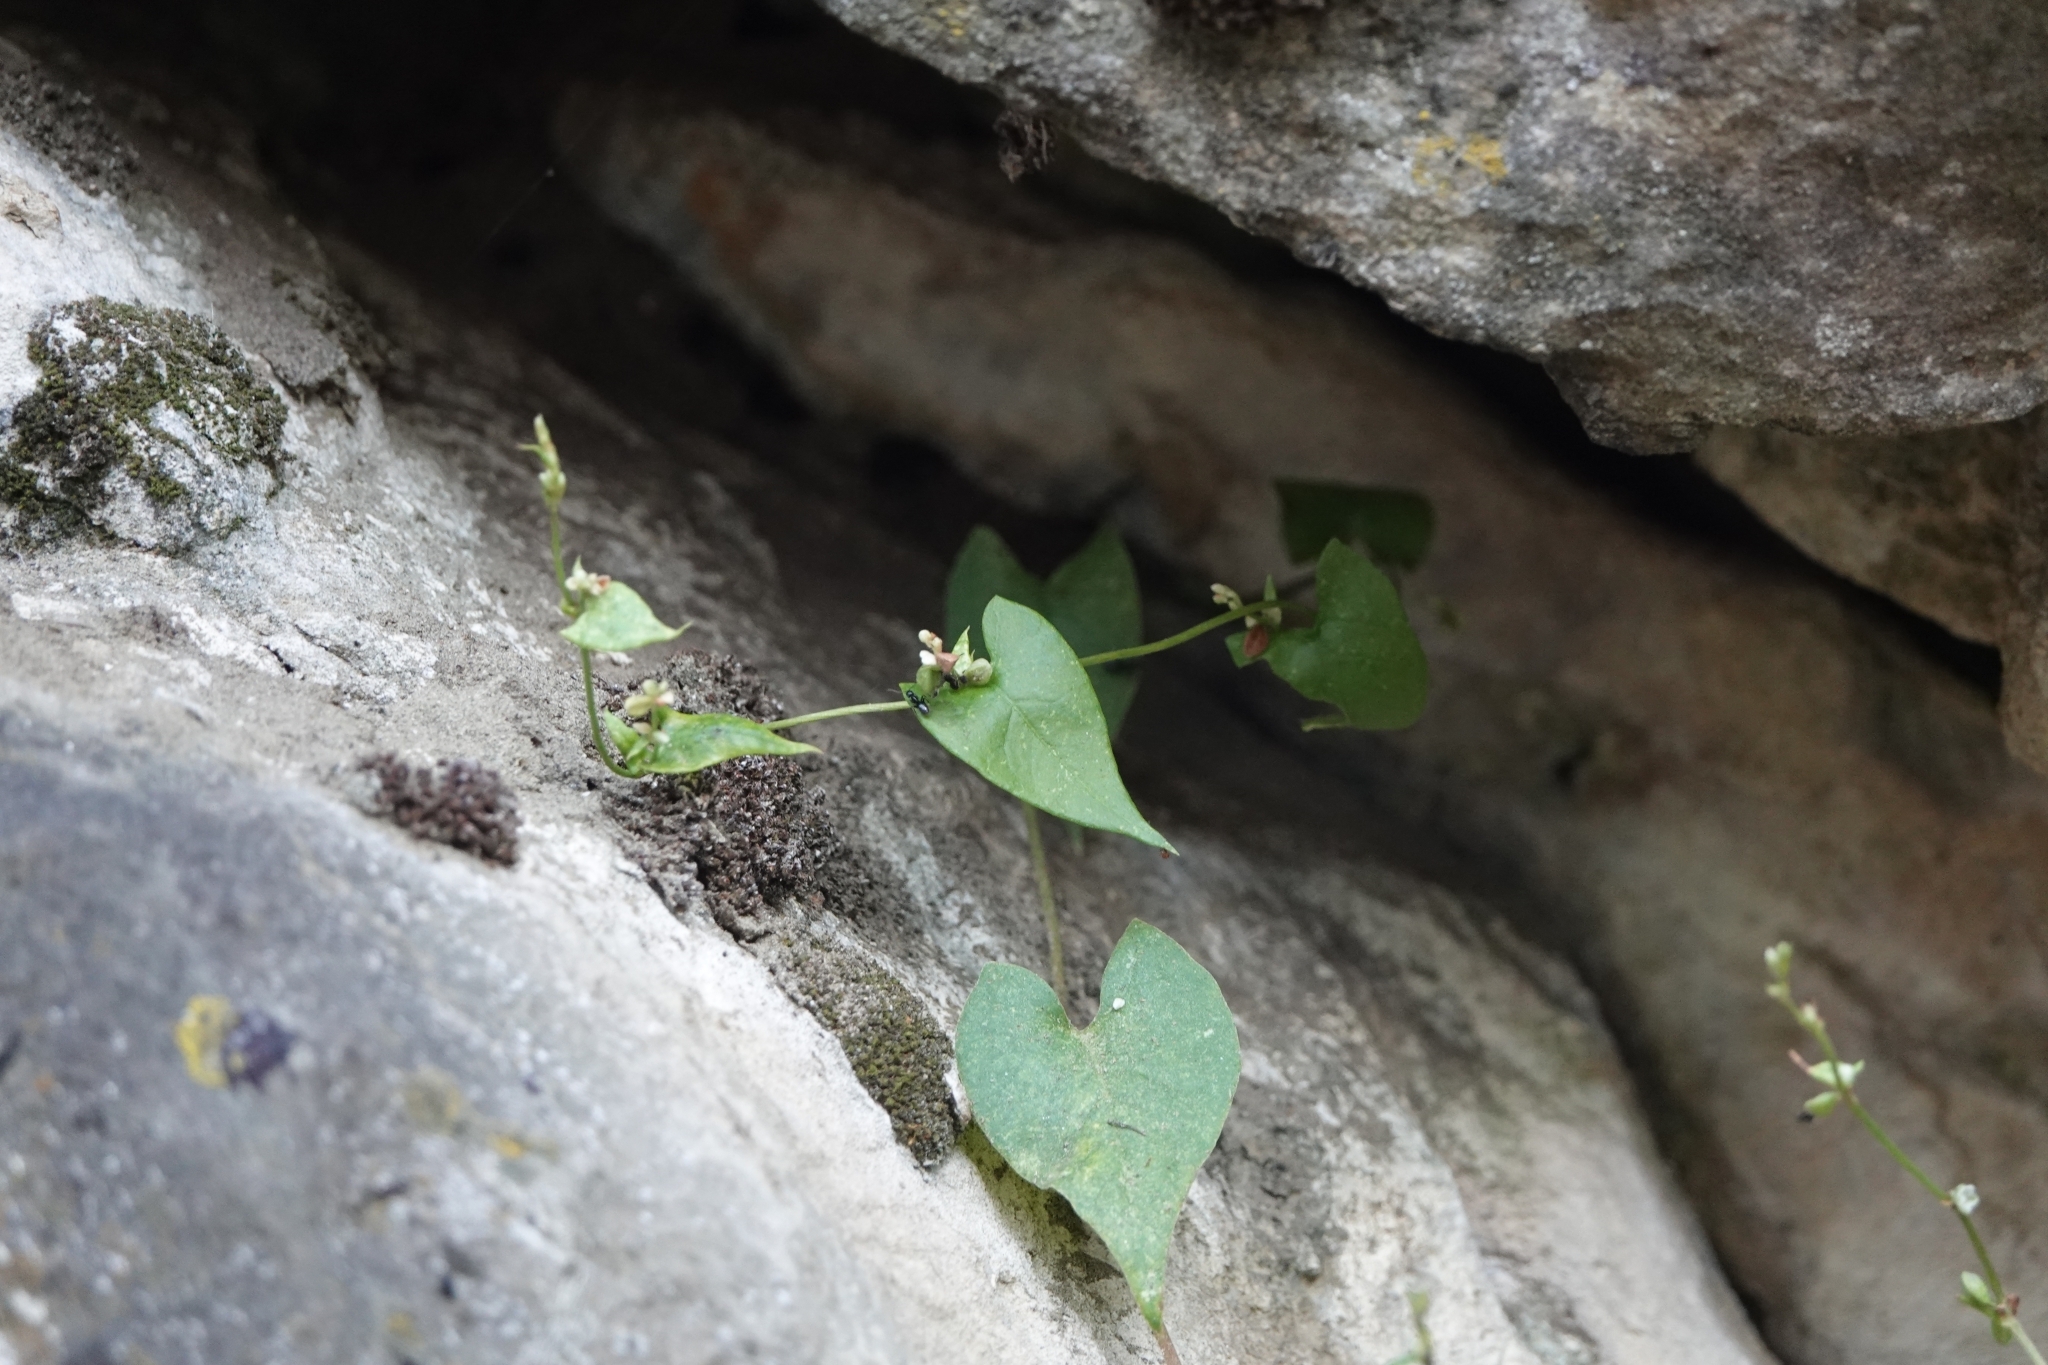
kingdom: Plantae
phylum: Tracheophyta
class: Magnoliopsida
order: Caryophyllales
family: Polygonaceae
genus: Fallopia
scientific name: Fallopia convolvulus
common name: Black bindweed
